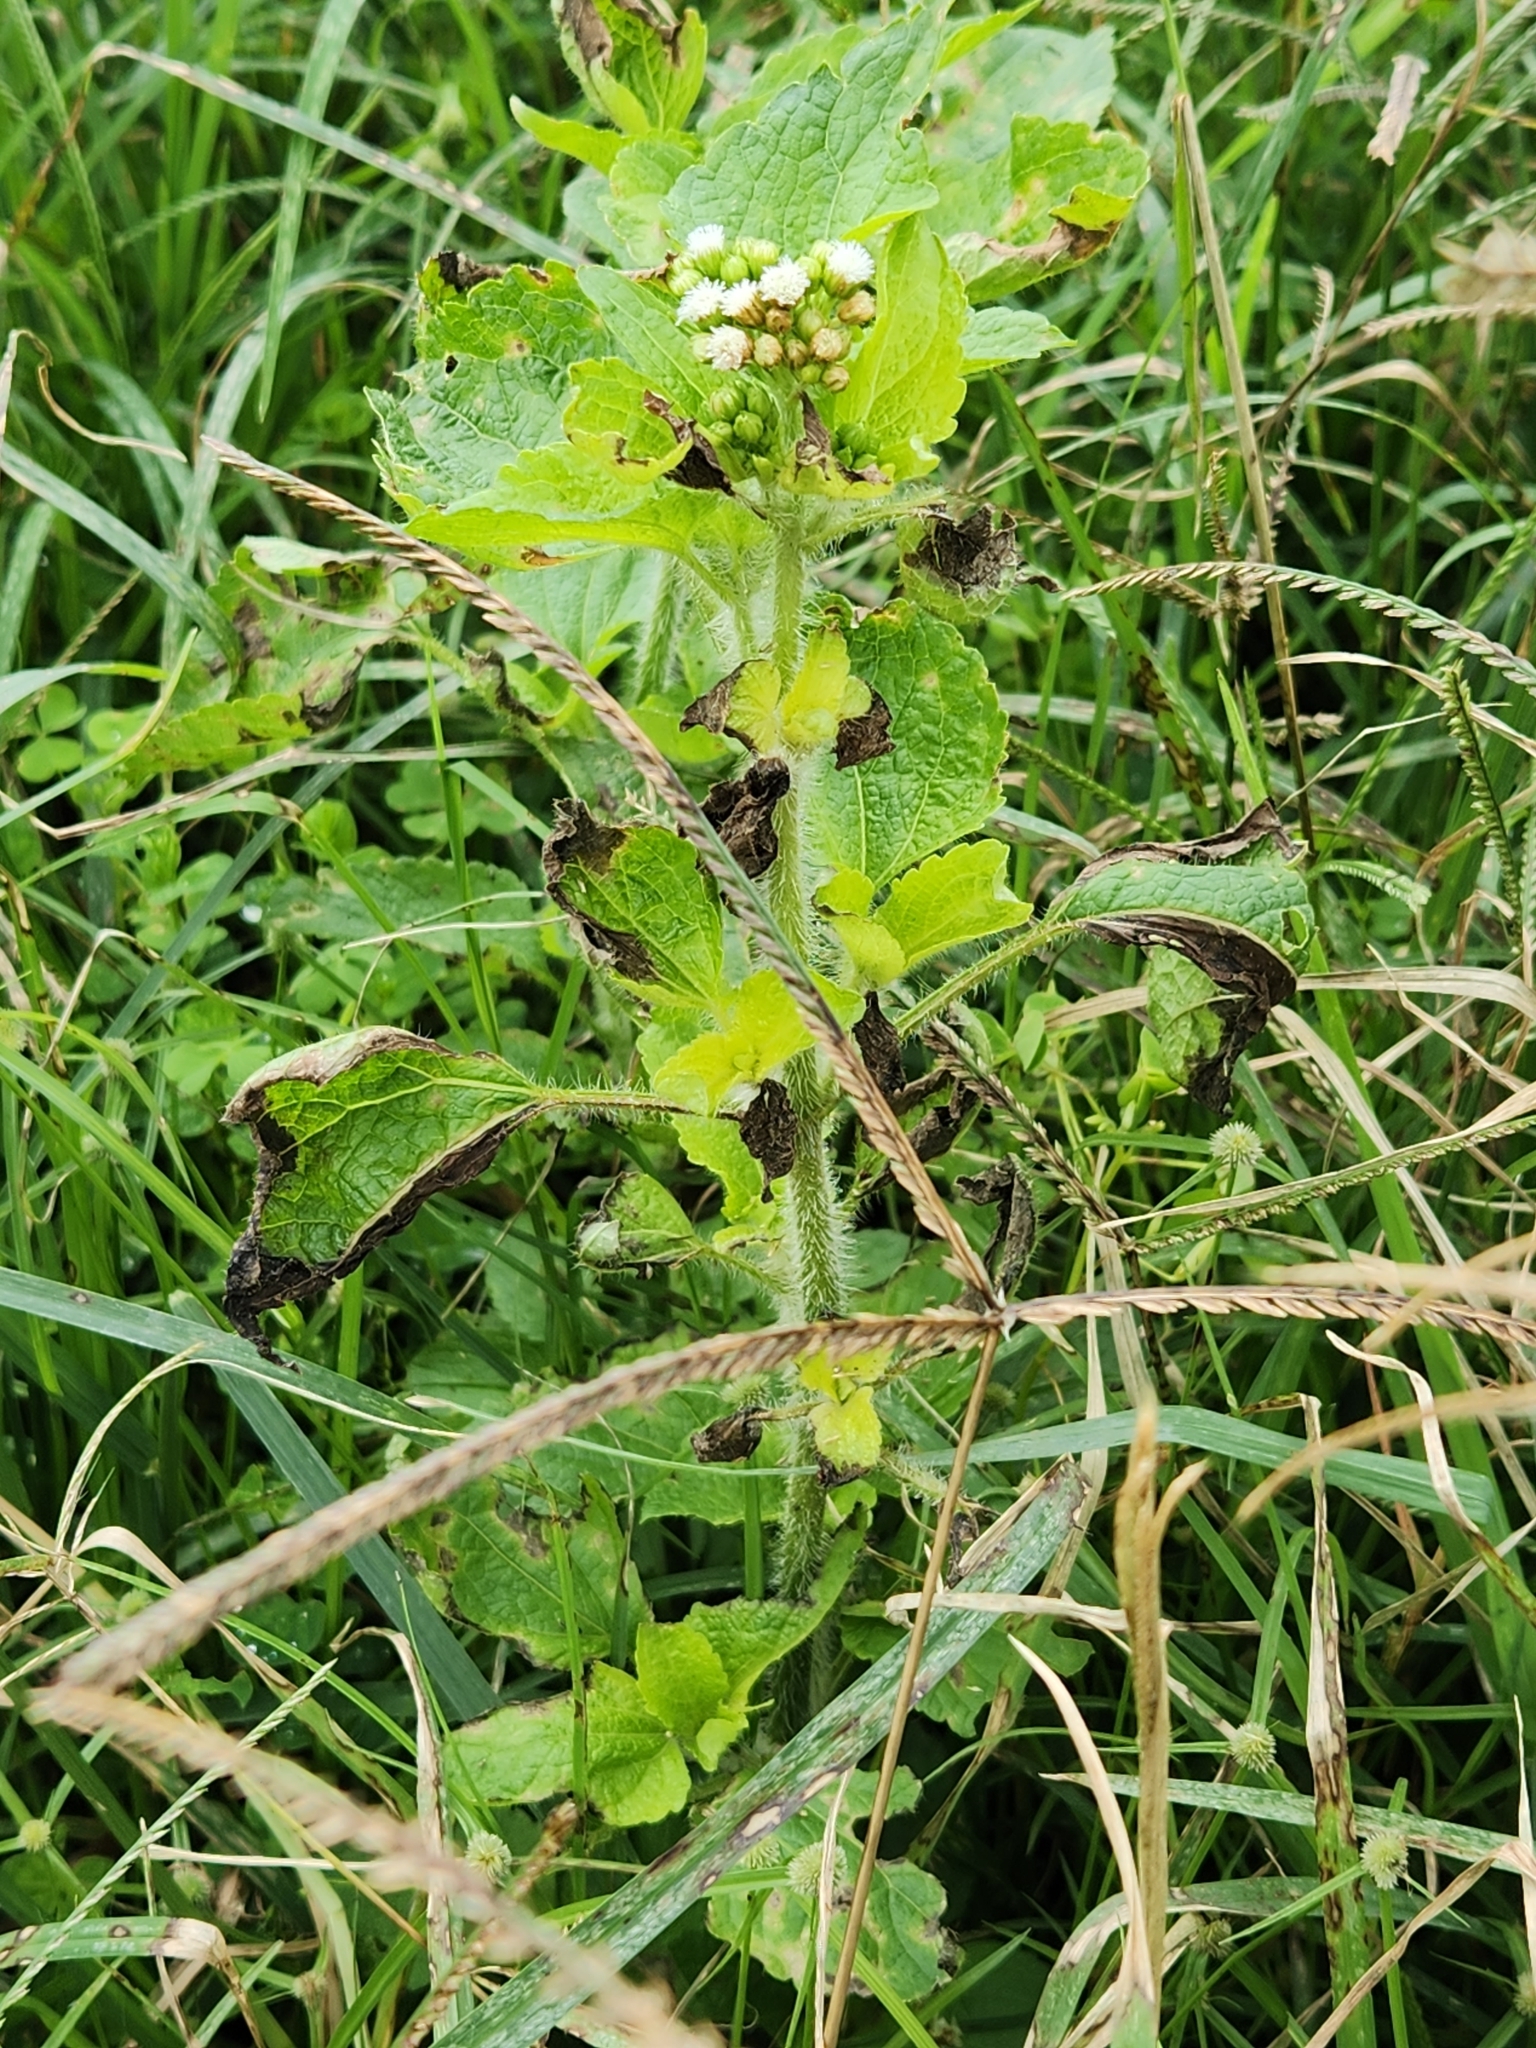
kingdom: Plantae
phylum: Tracheophyta
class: Magnoliopsida
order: Asterales
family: Asteraceae
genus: Ageratum
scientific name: Ageratum conyzoides
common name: Tropical whiteweed
